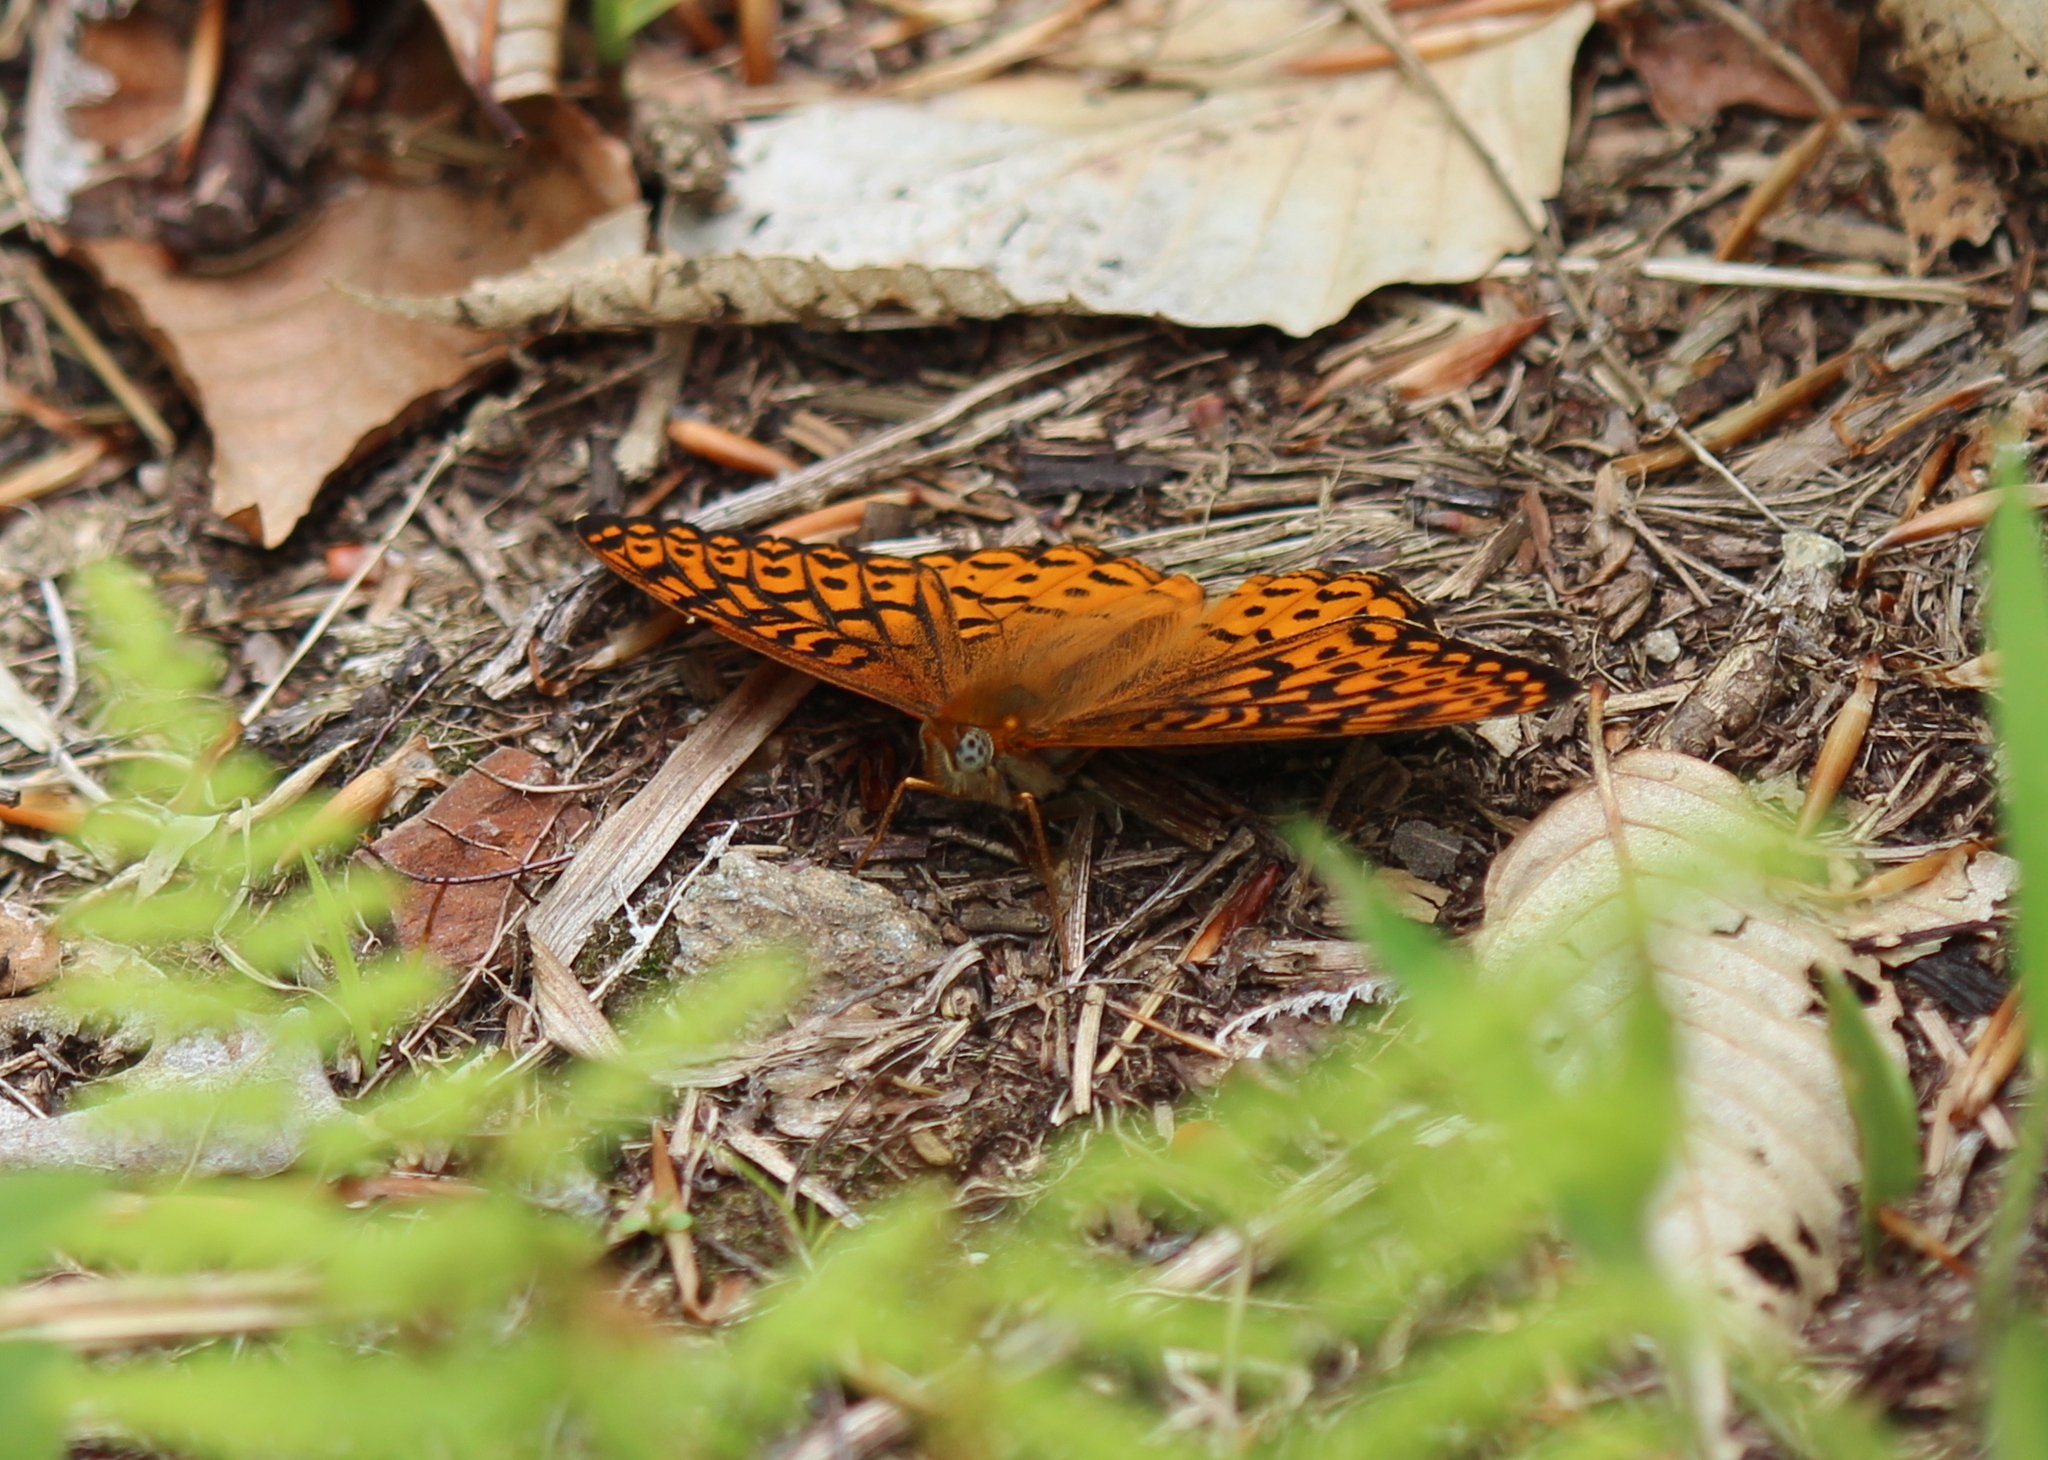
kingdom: Animalia
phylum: Arthropoda
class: Insecta
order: Lepidoptera
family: Nymphalidae
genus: Speyeria
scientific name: Speyeria atlantis
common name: Atlantis fritillary
